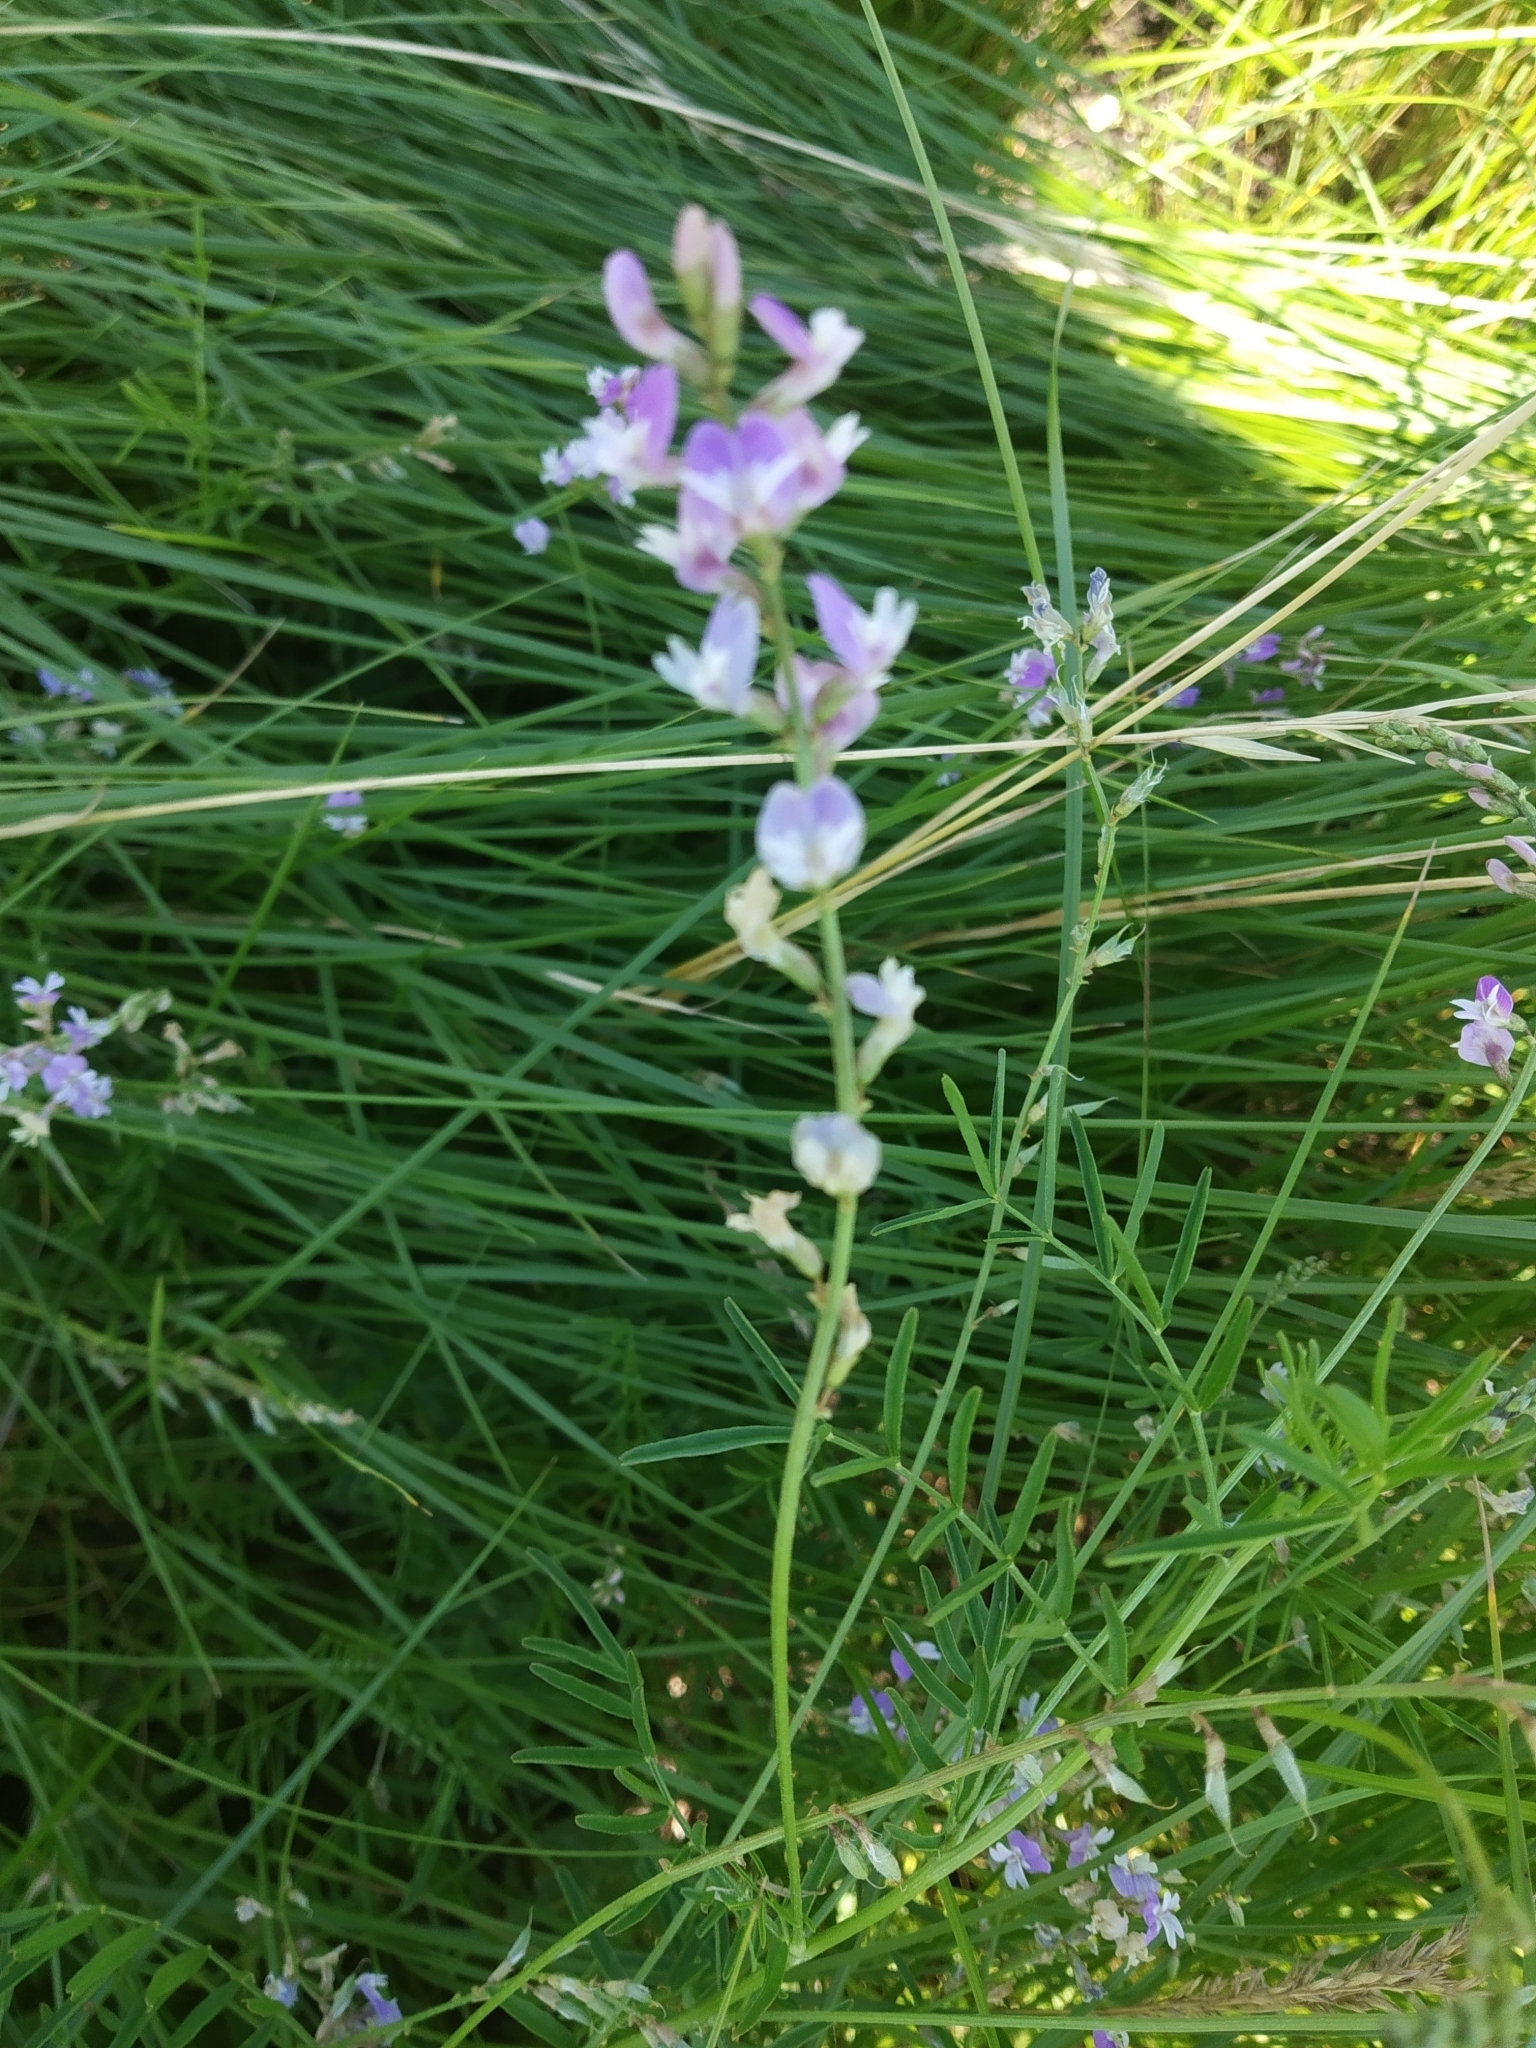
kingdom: Plantae
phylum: Tracheophyta
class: Magnoliopsida
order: Fabales
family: Fabaceae
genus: Astragalus
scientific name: Astragalus austriacus
